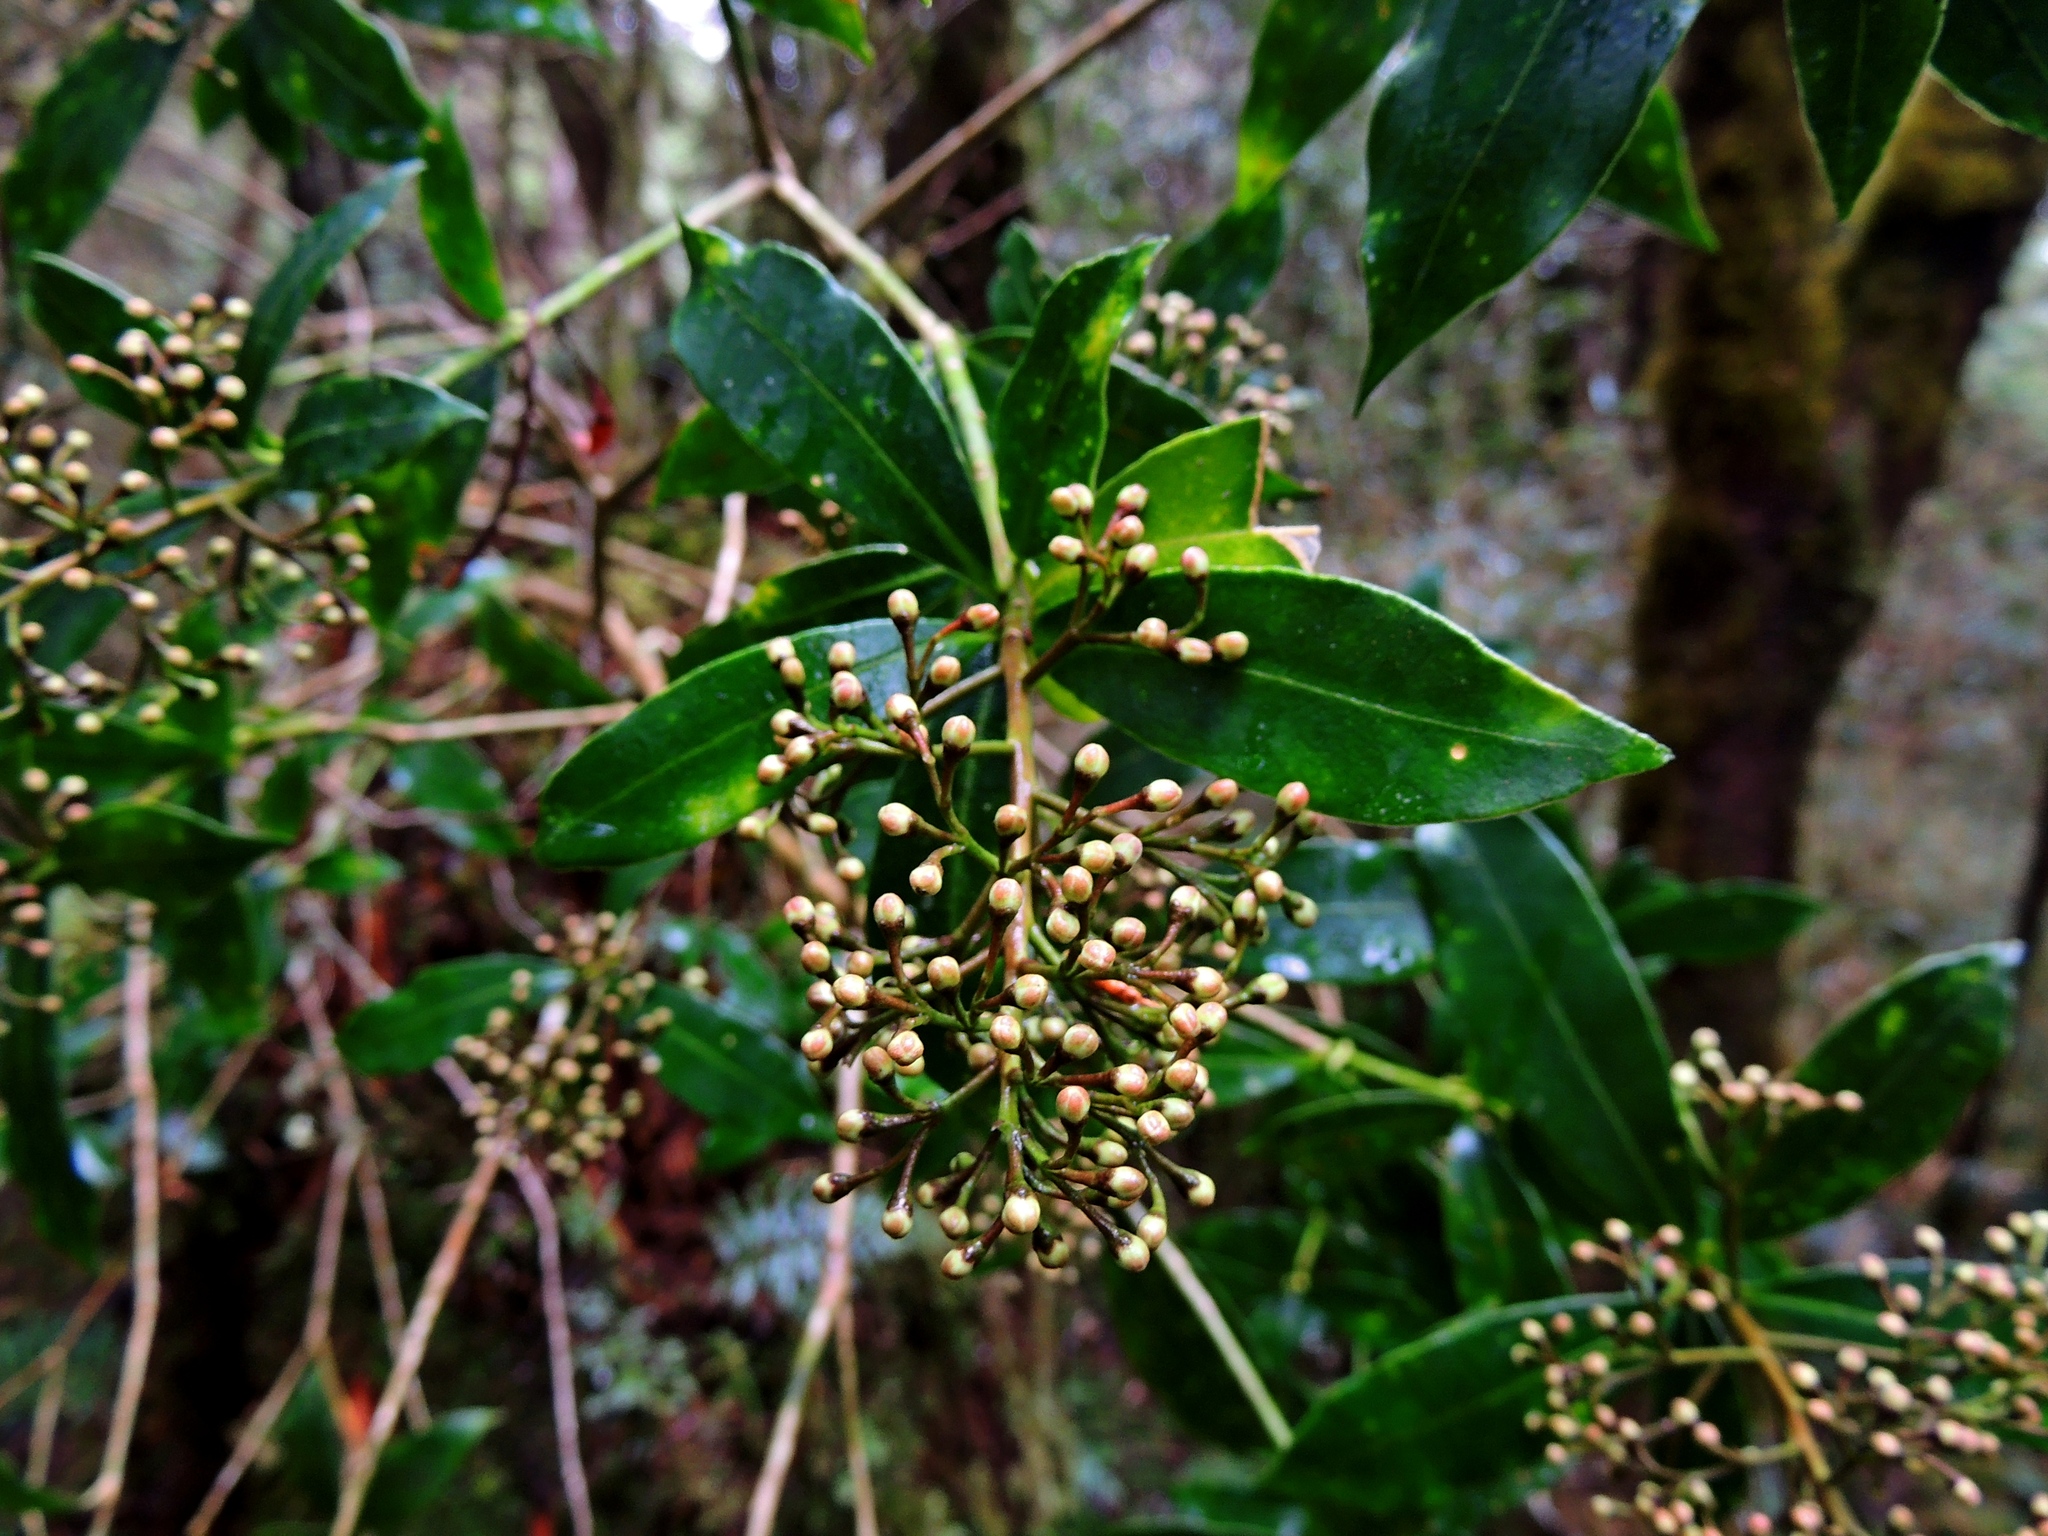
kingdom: Plantae
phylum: Tracheophyta
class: Magnoliopsida
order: Sapindales
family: Rutaceae
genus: Skimmia
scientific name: Skimmia japonica
